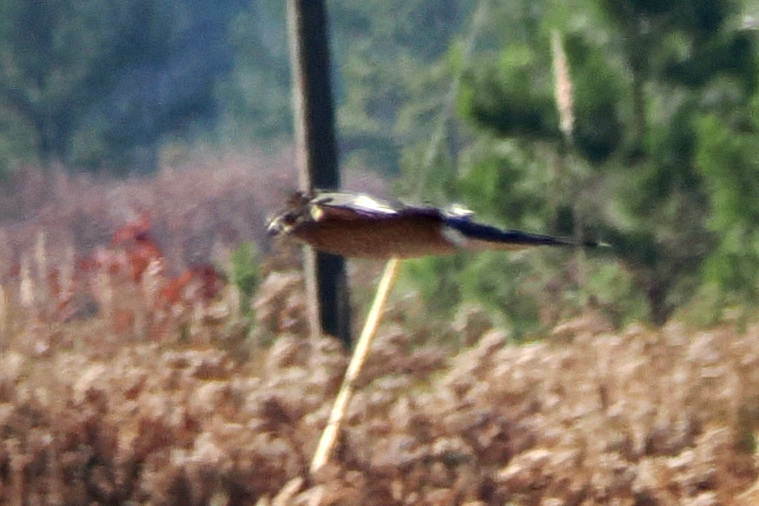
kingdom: Animalia
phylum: Chordata
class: Aves
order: Accipitriformes
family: Accipitridae
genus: Accipiter
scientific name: Accipiter cooperii
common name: Cooper's hawk
